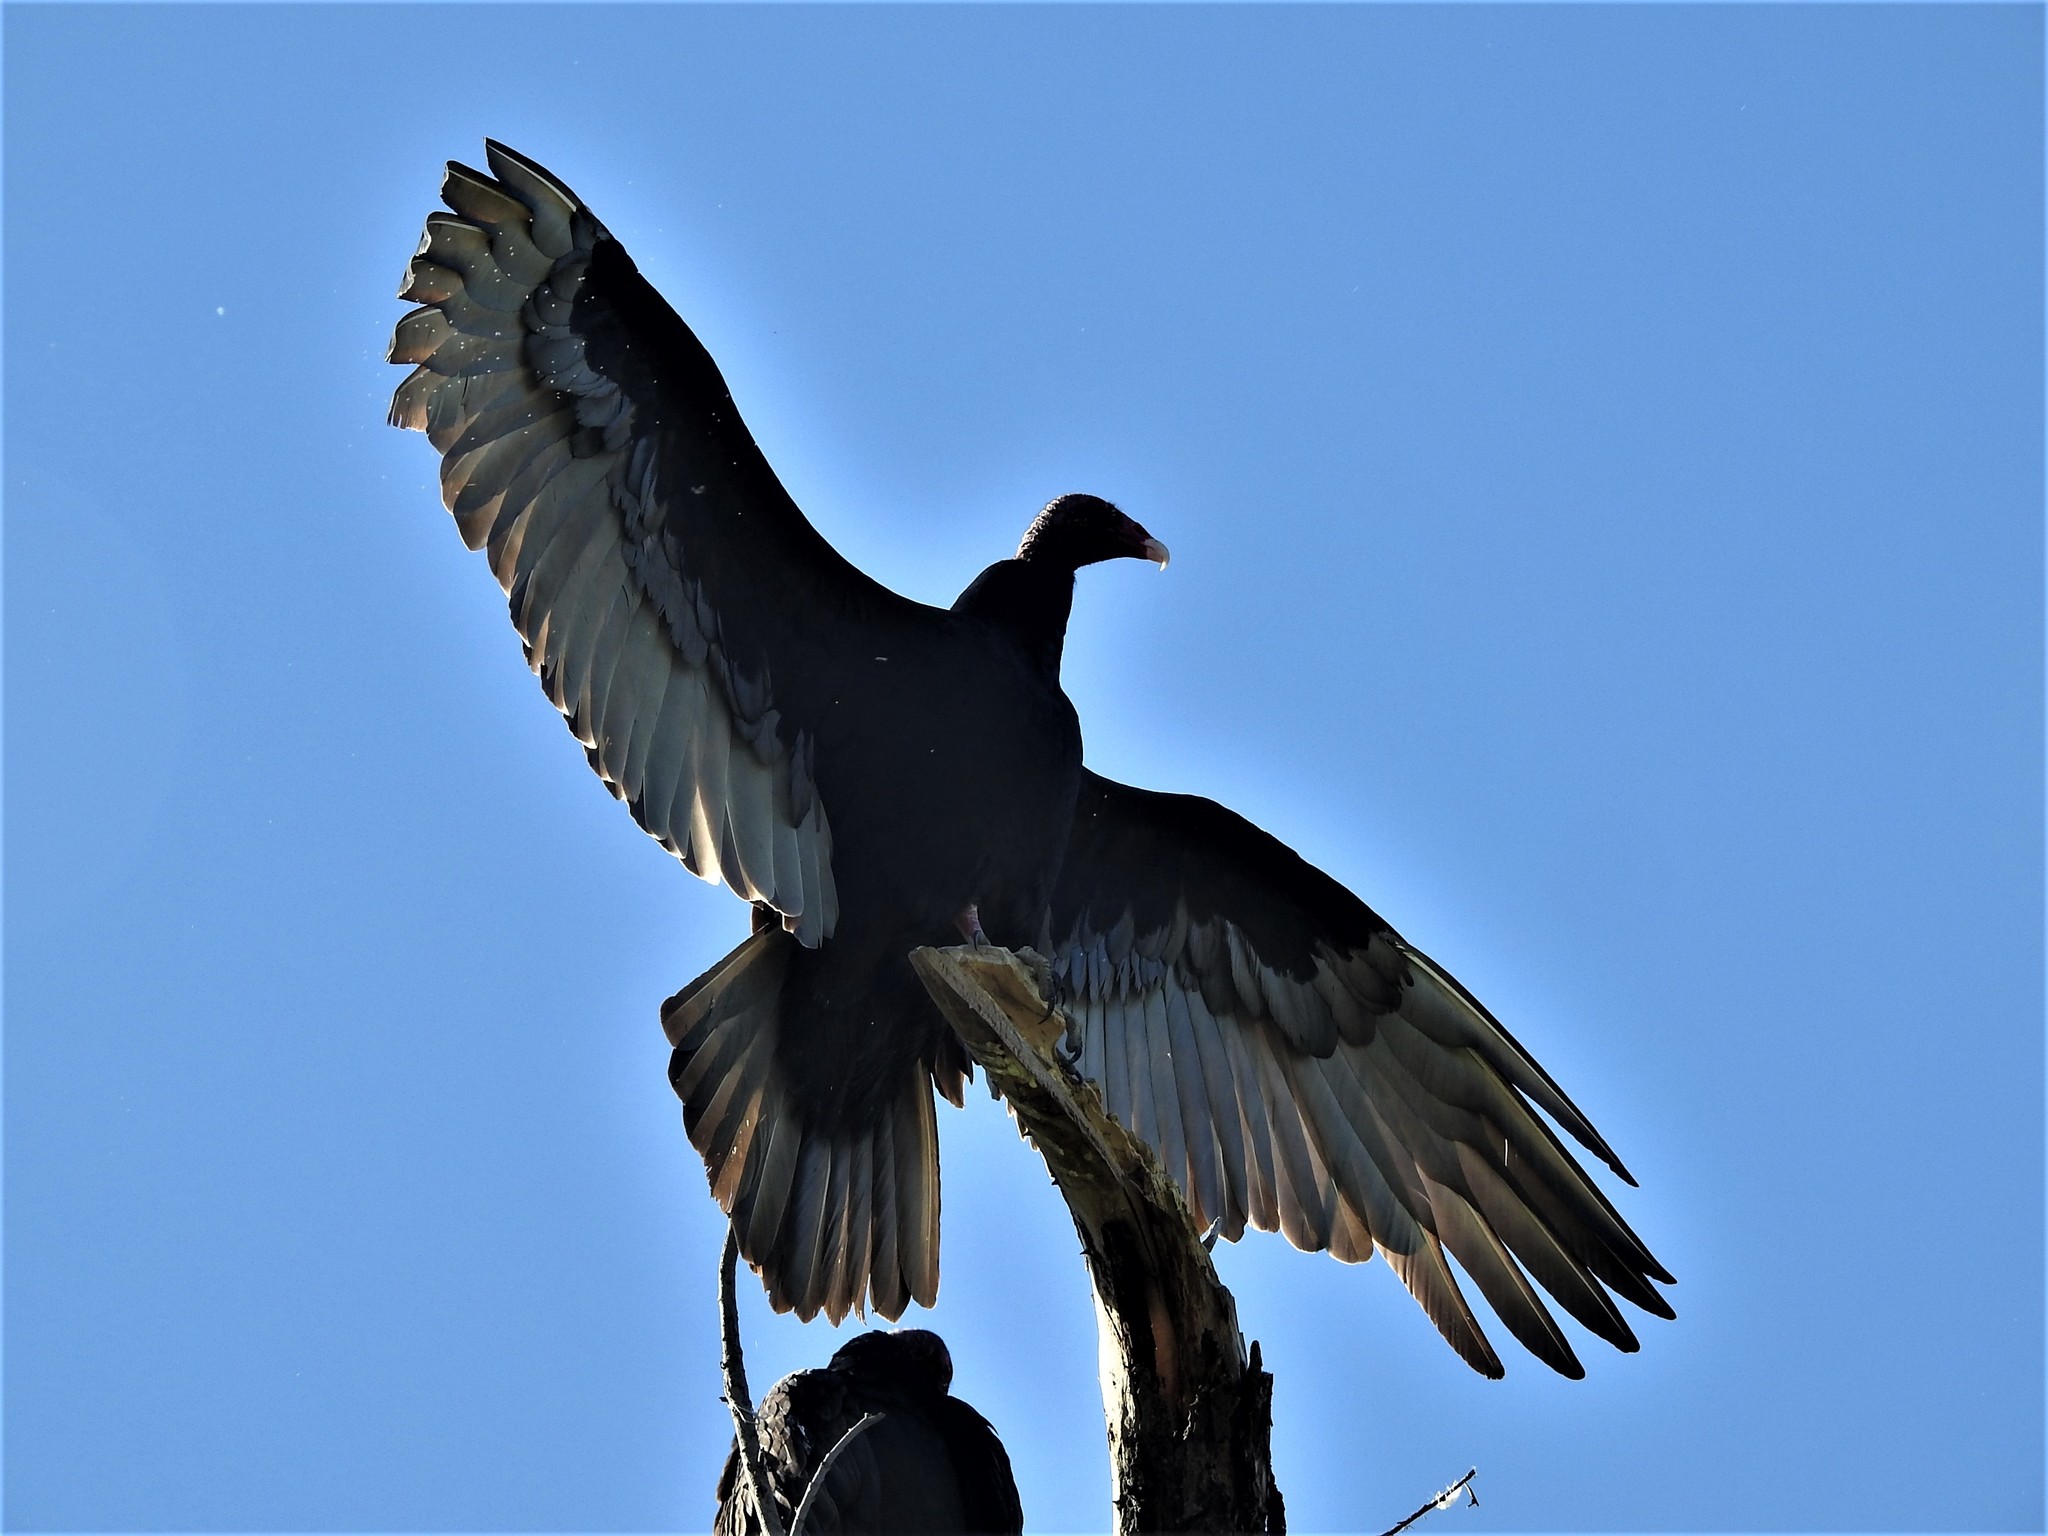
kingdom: Animalia
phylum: Chordata
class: Aves
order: Accipitriformes
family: Cathartidae
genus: Cathartes
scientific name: Cathartes aura
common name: Turkey vulture
